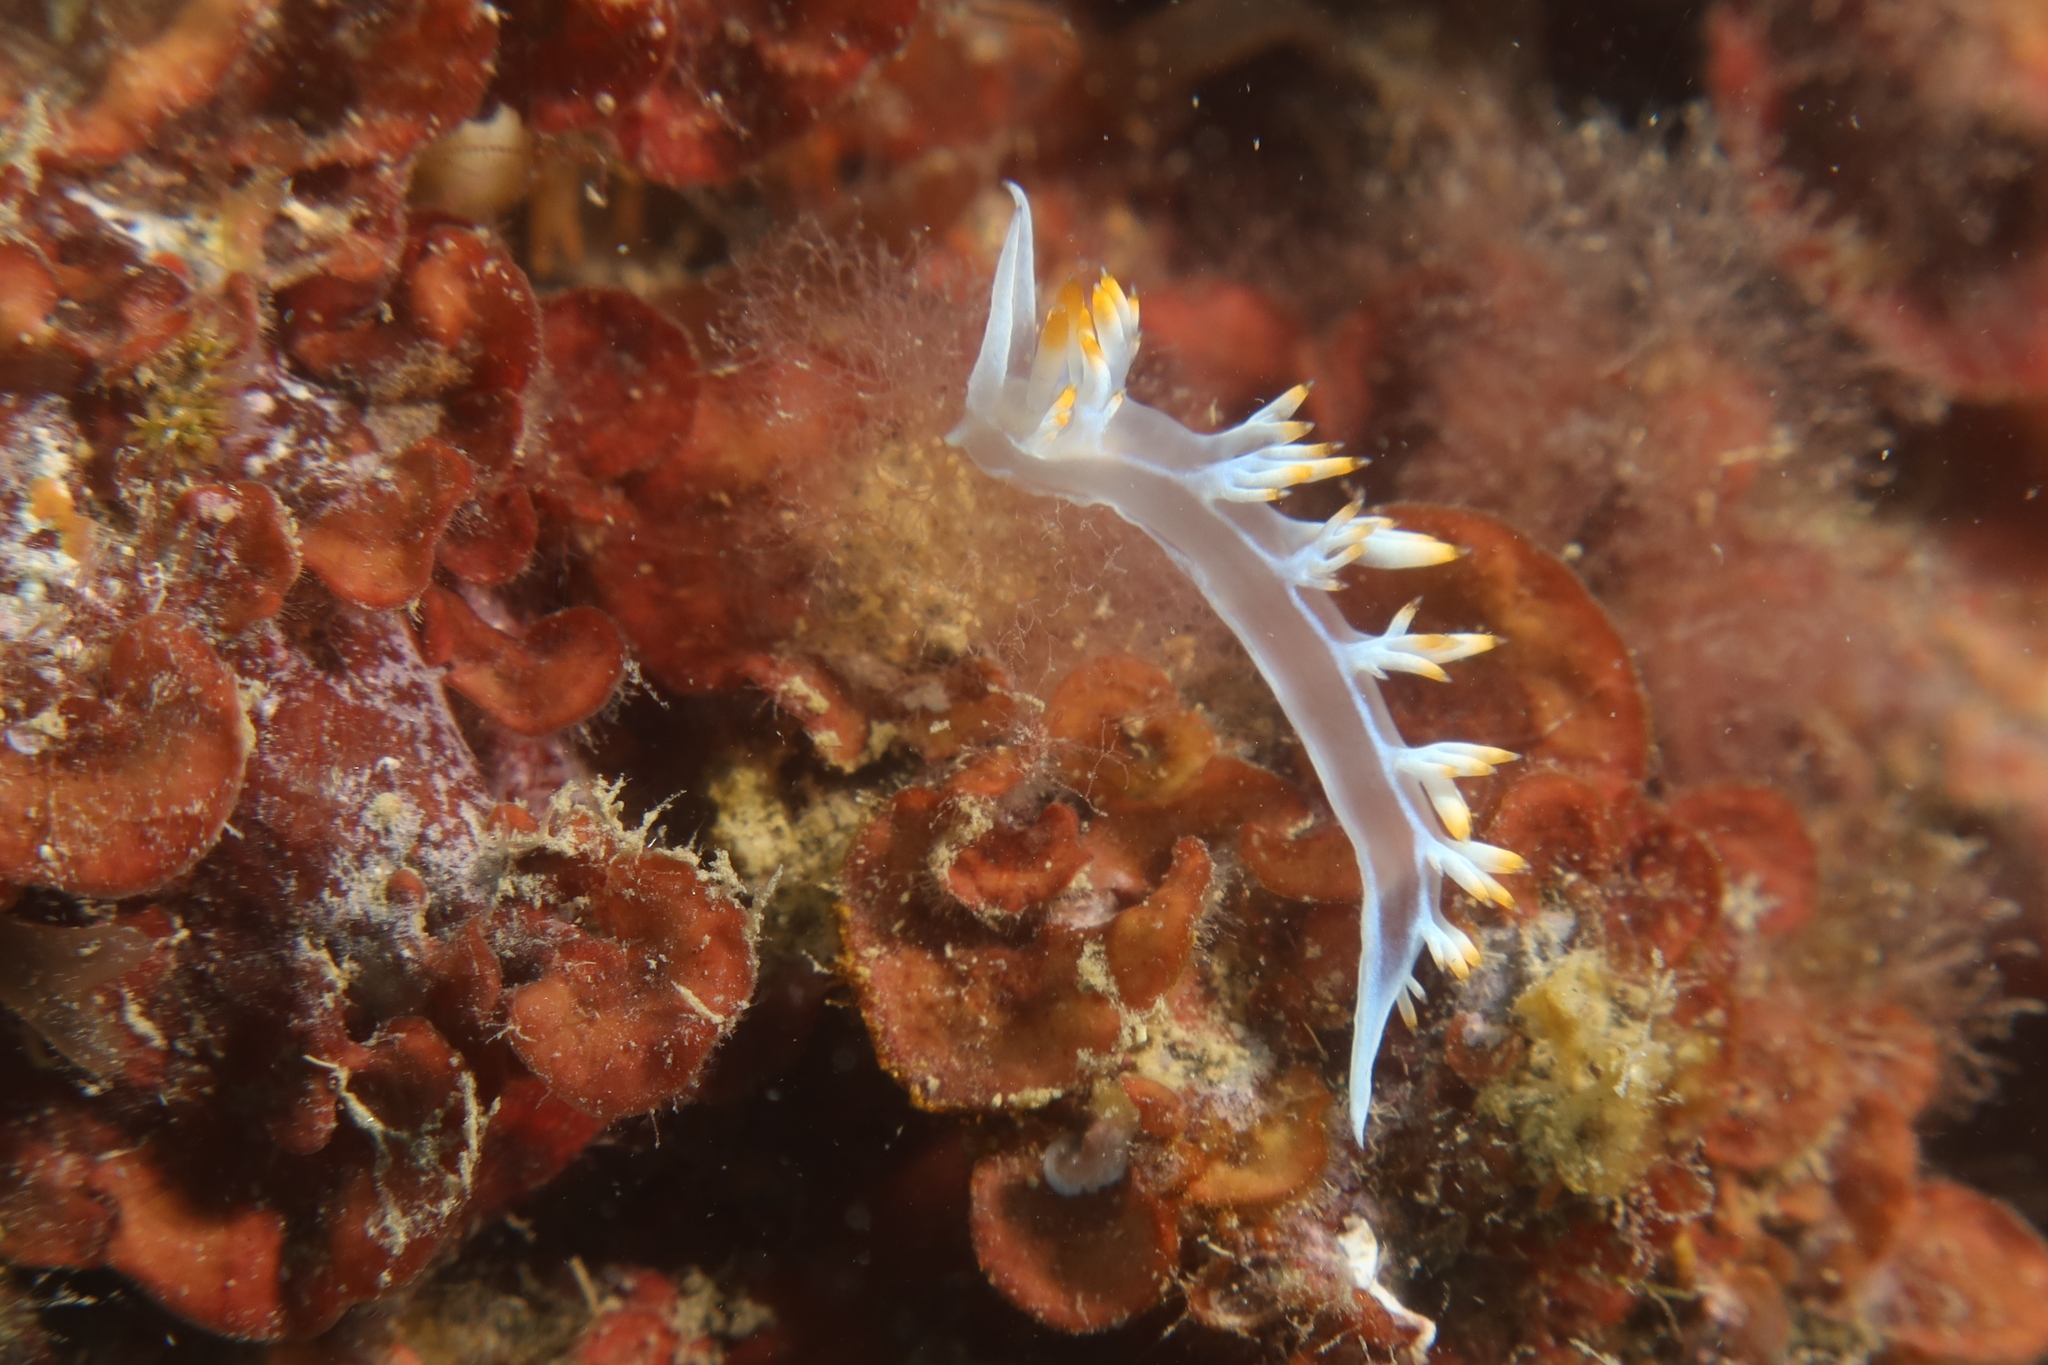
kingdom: Animalia
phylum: Mollusca
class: Gastropoda
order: Nudibranchia
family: Samlidae
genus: Luisella
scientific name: Luisella babai
